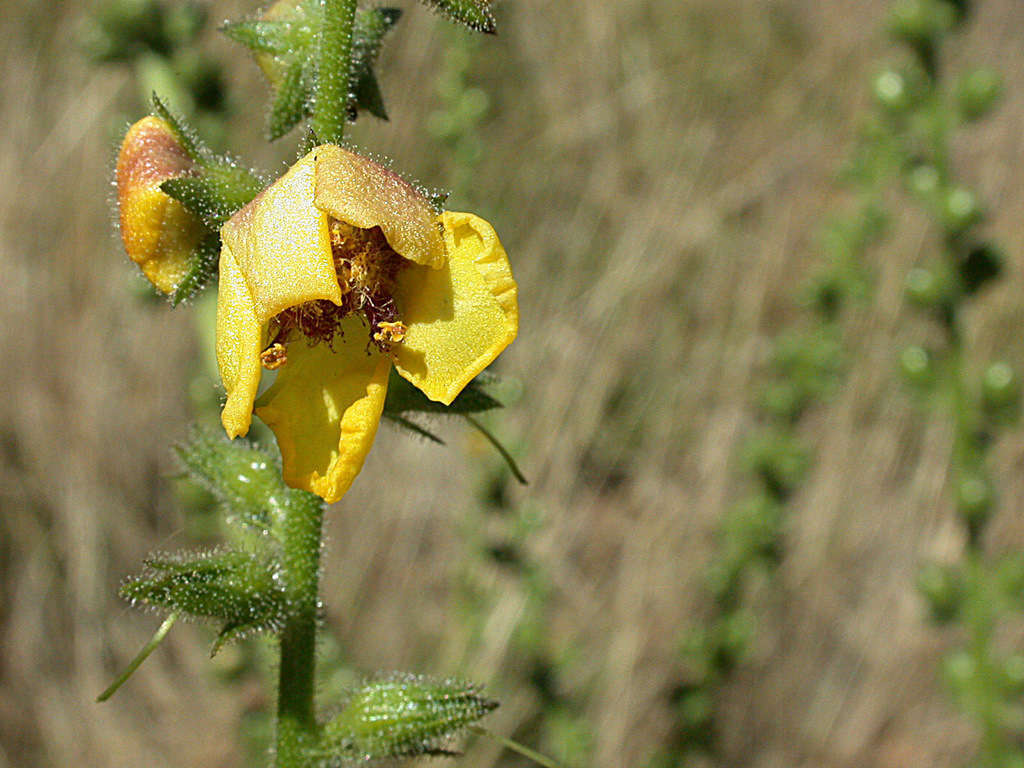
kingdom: Plantae
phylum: Tracheophyta
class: Magnoliopsida
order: Lamiales
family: Scrophulariaceae
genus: Verbascum
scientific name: Verbascum virgatum
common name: Twiggy mullein
